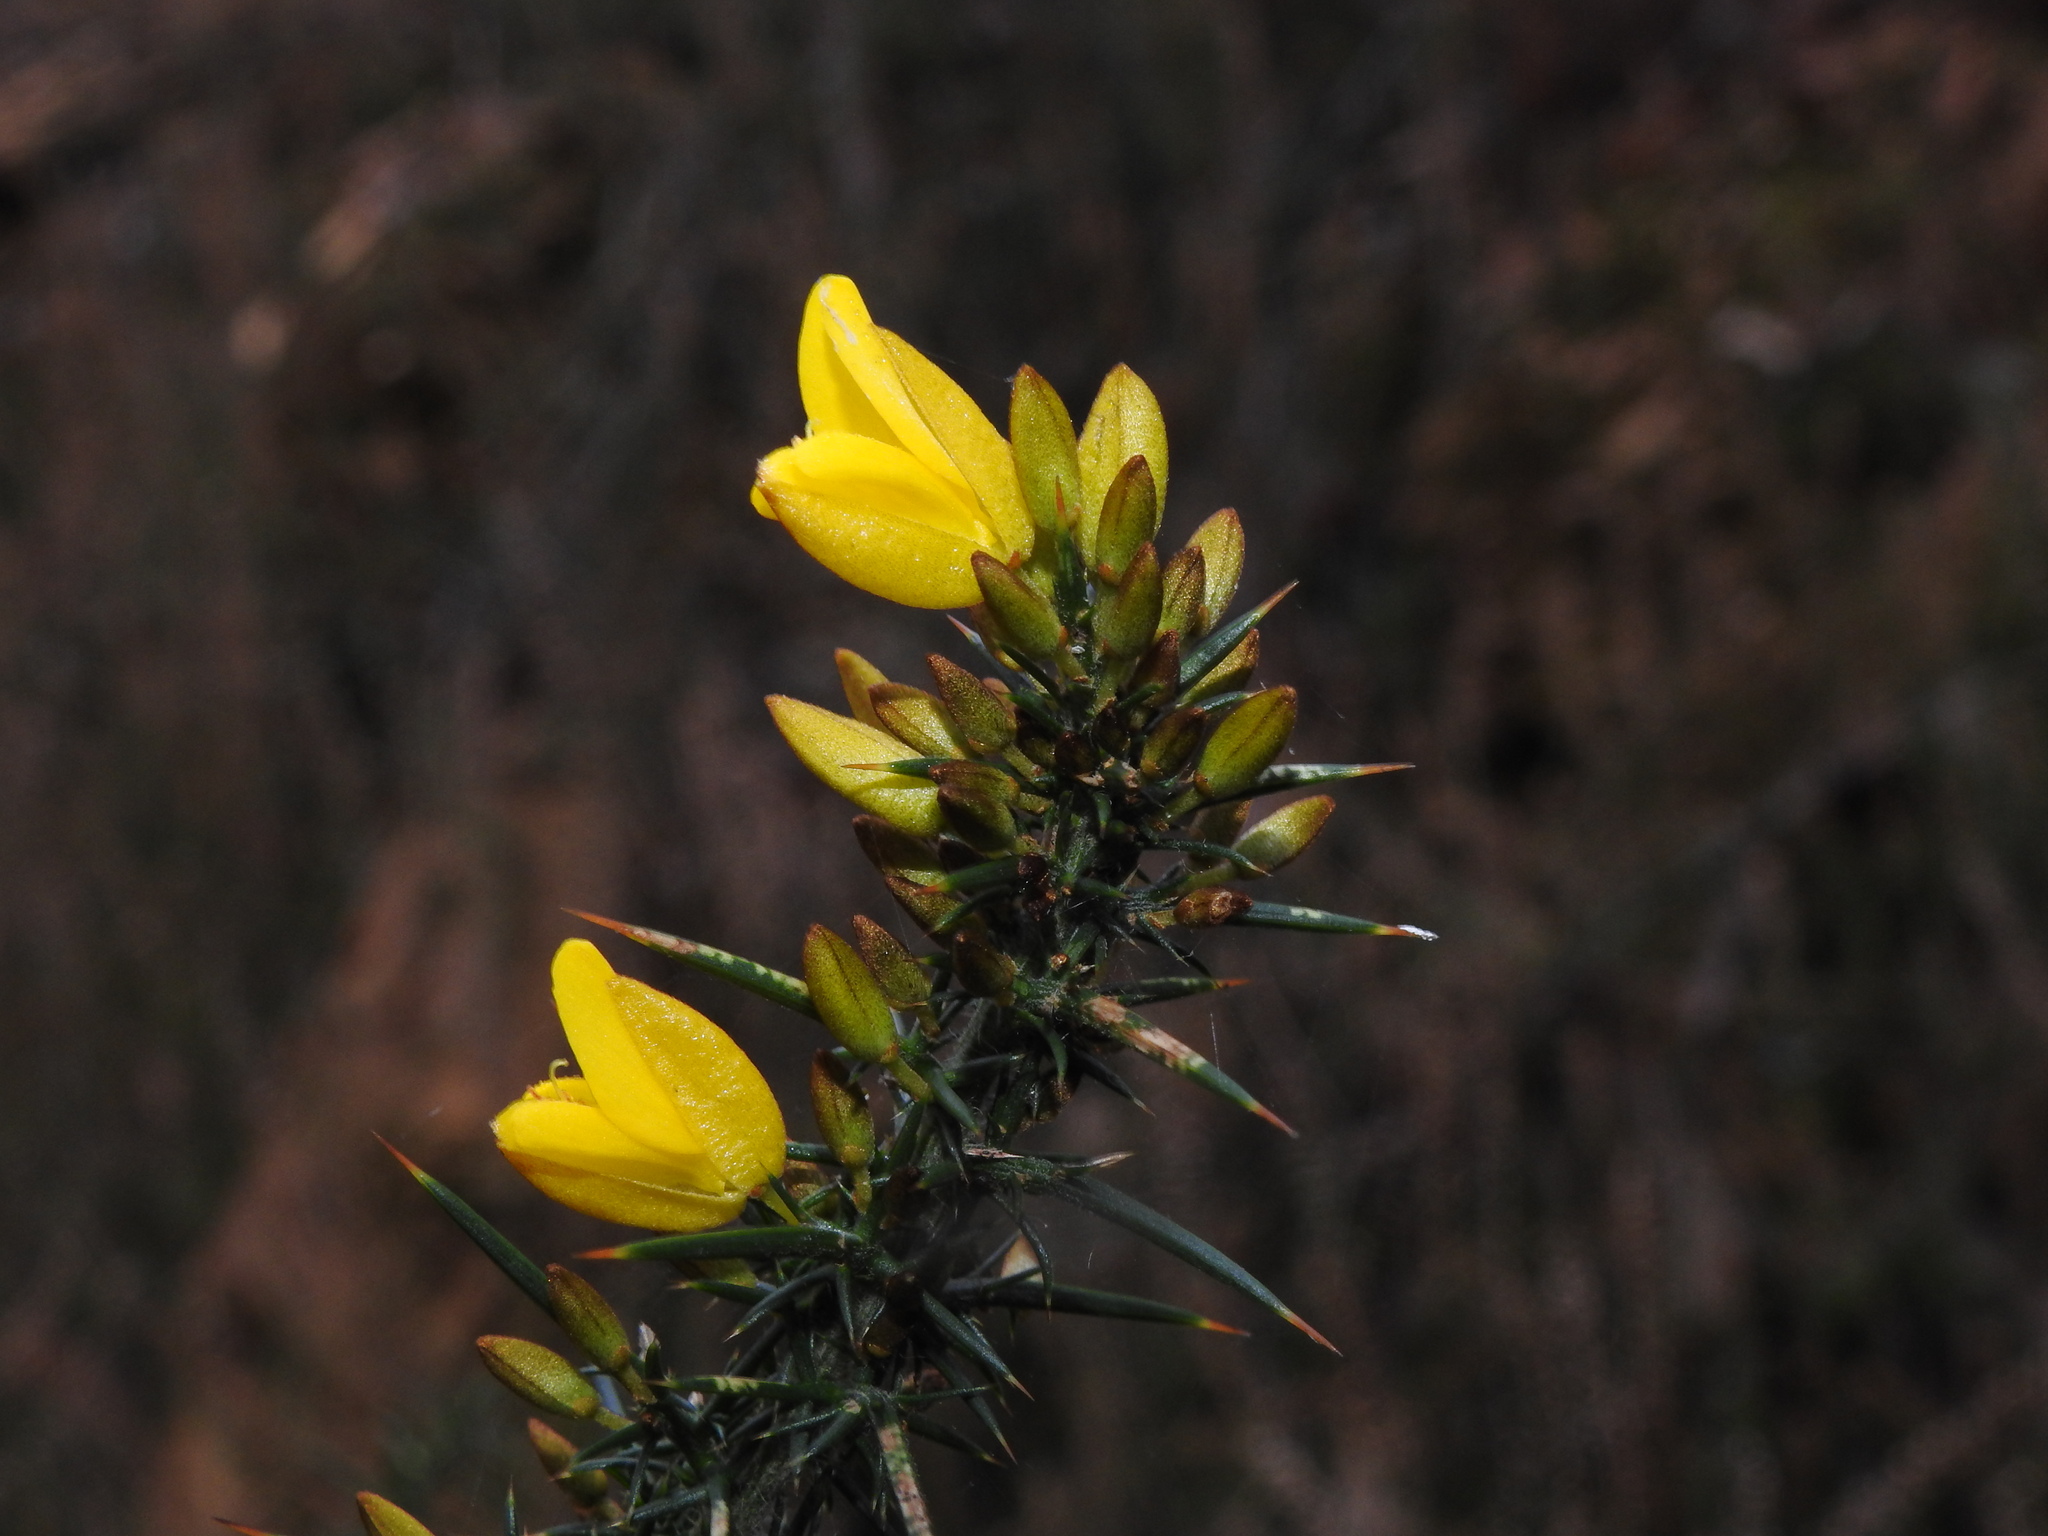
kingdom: Plantae
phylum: Tracheophyta
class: Magnoliopsida
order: Fabales
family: Fabaceae
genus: Ulex
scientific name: Ulex jussiaei
